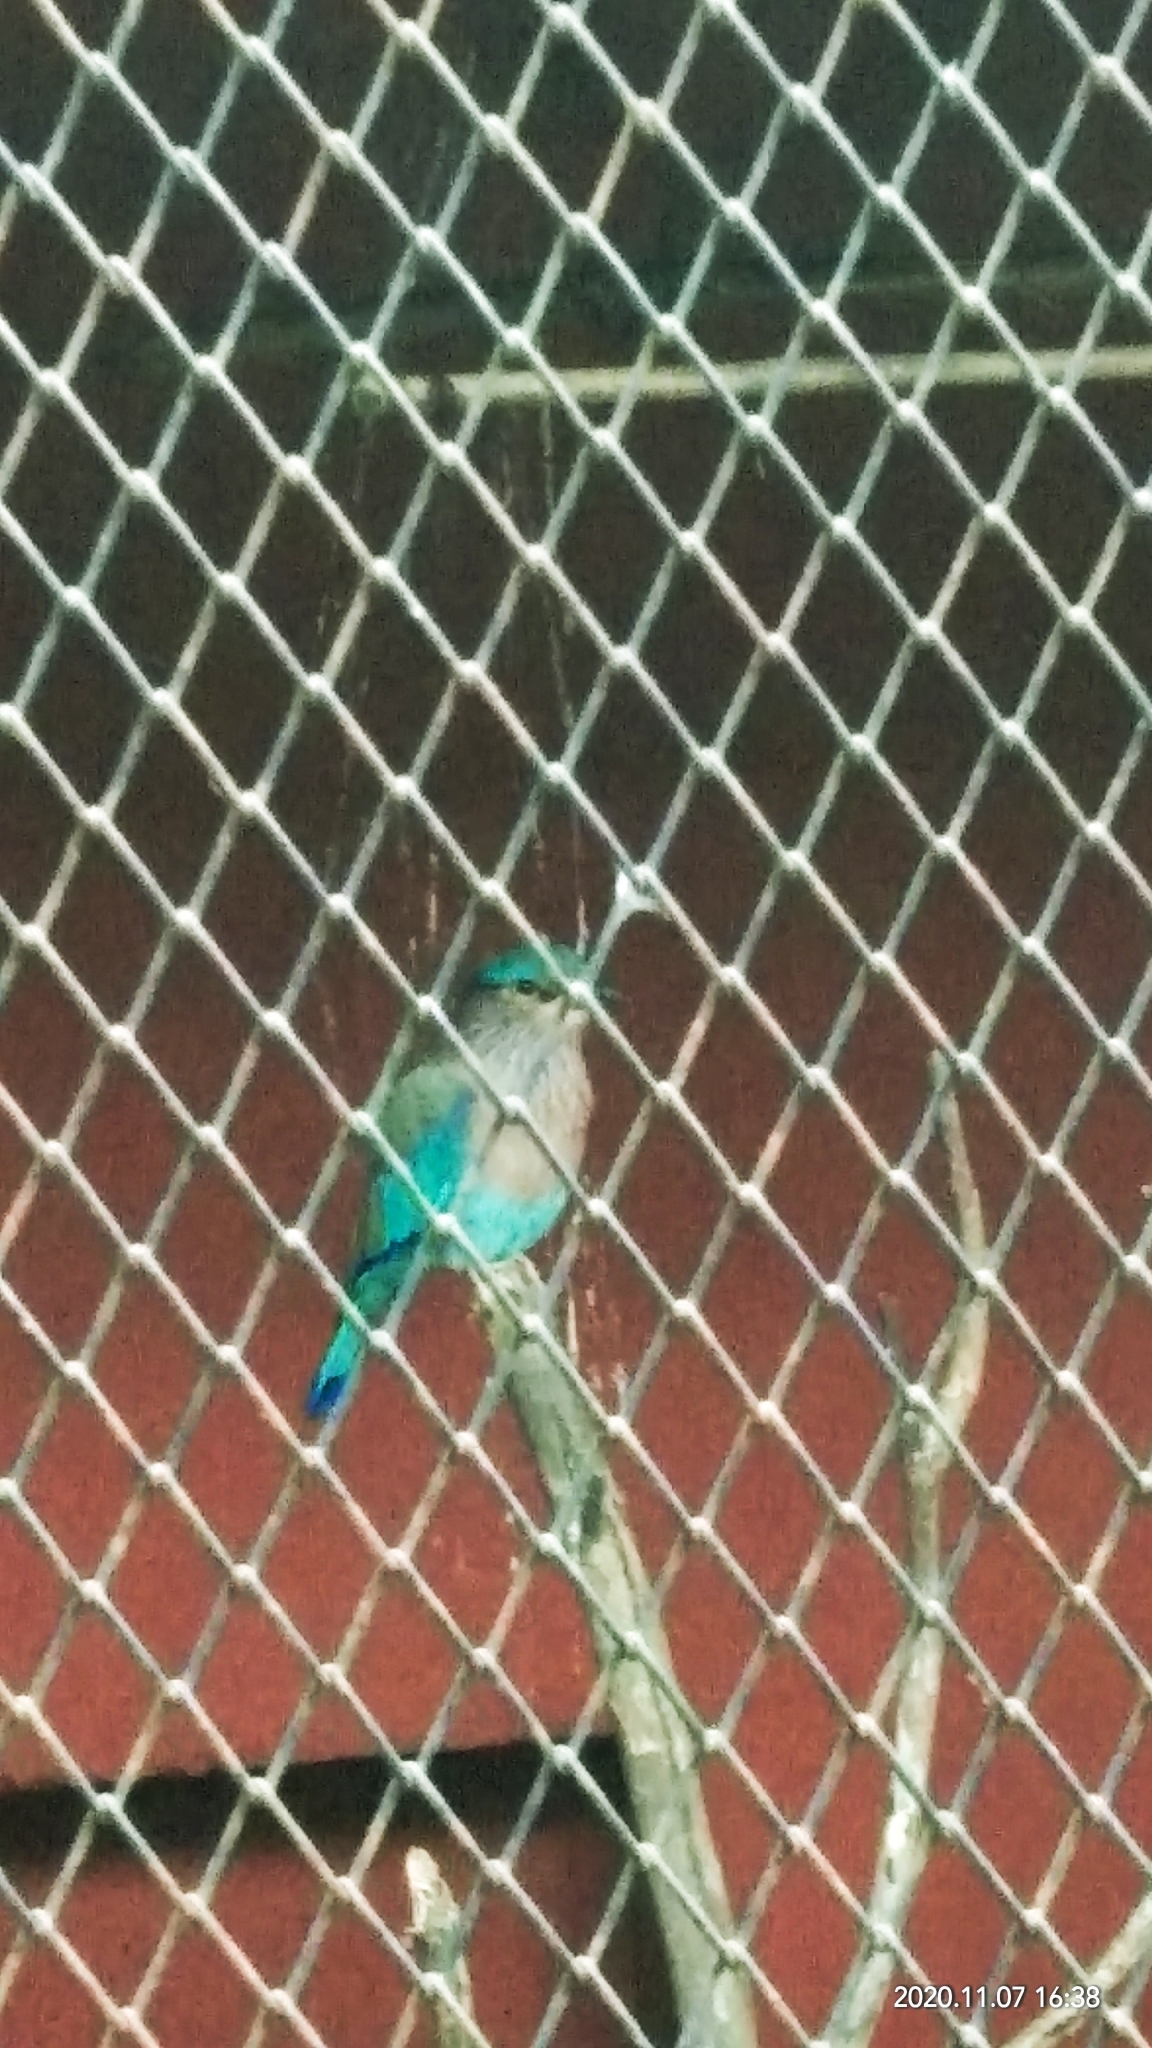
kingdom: Animalia
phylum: Chordata
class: Aves
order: Coraciiformes
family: Coraciidae
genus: Coracias
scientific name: Coracias benghalensis
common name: Indian roller
